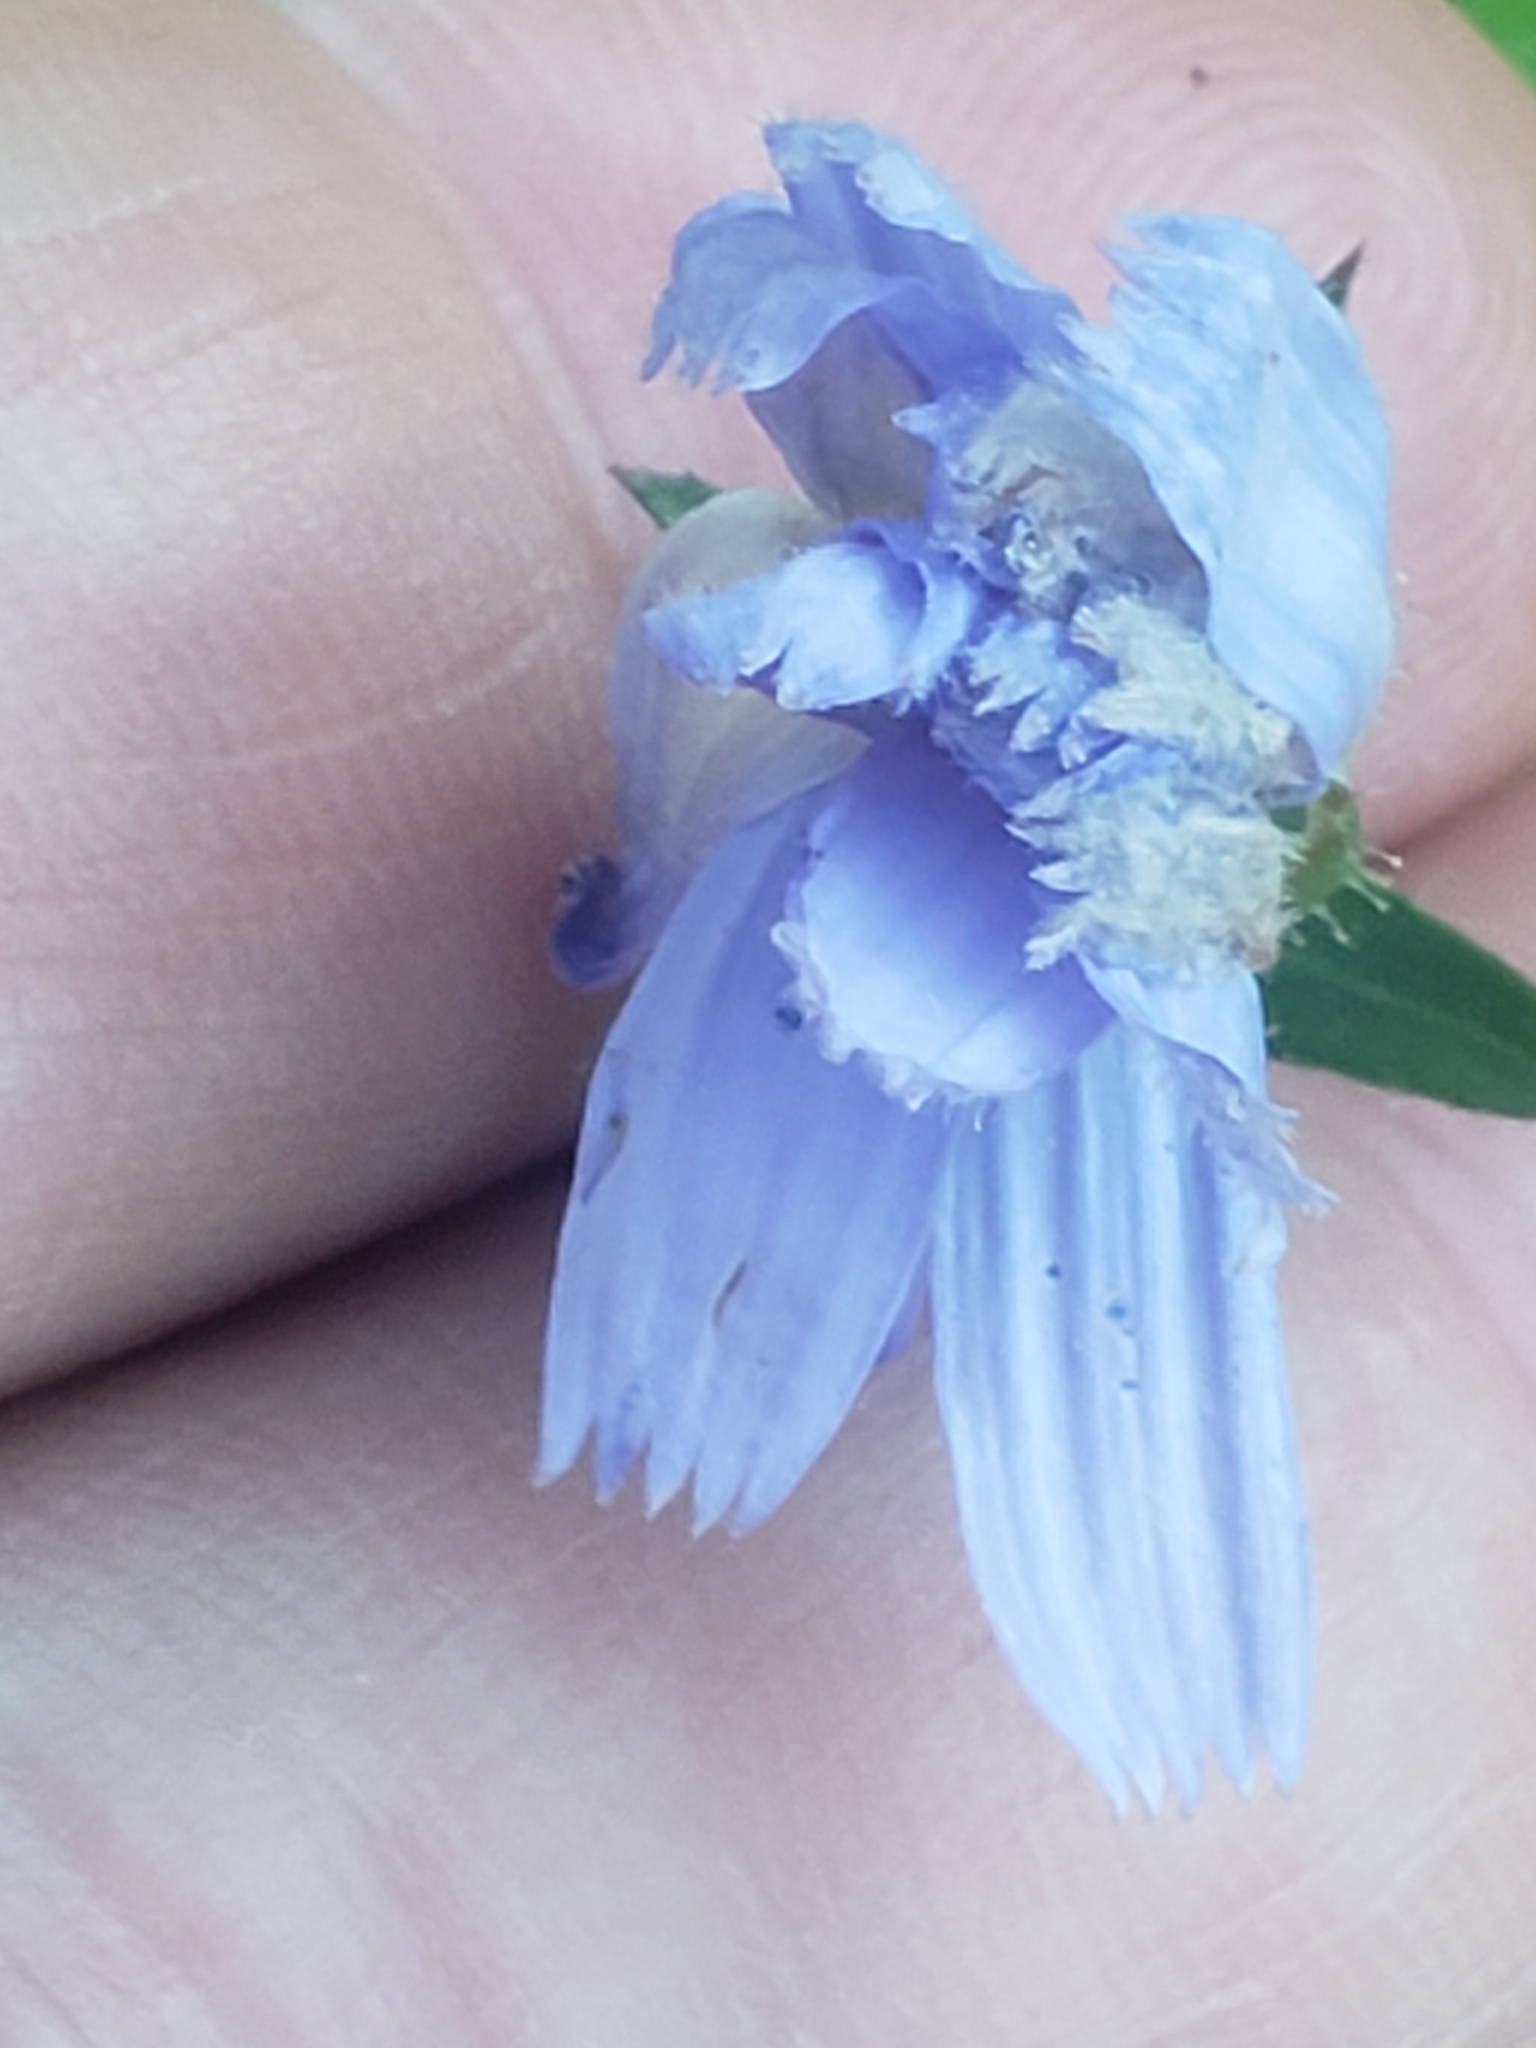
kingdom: Plantae
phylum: Tracheophyta
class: Magnoliopsida
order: Asterales
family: Asteraceae
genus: Cichorium
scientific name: Cichorium intybus
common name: Chicory
